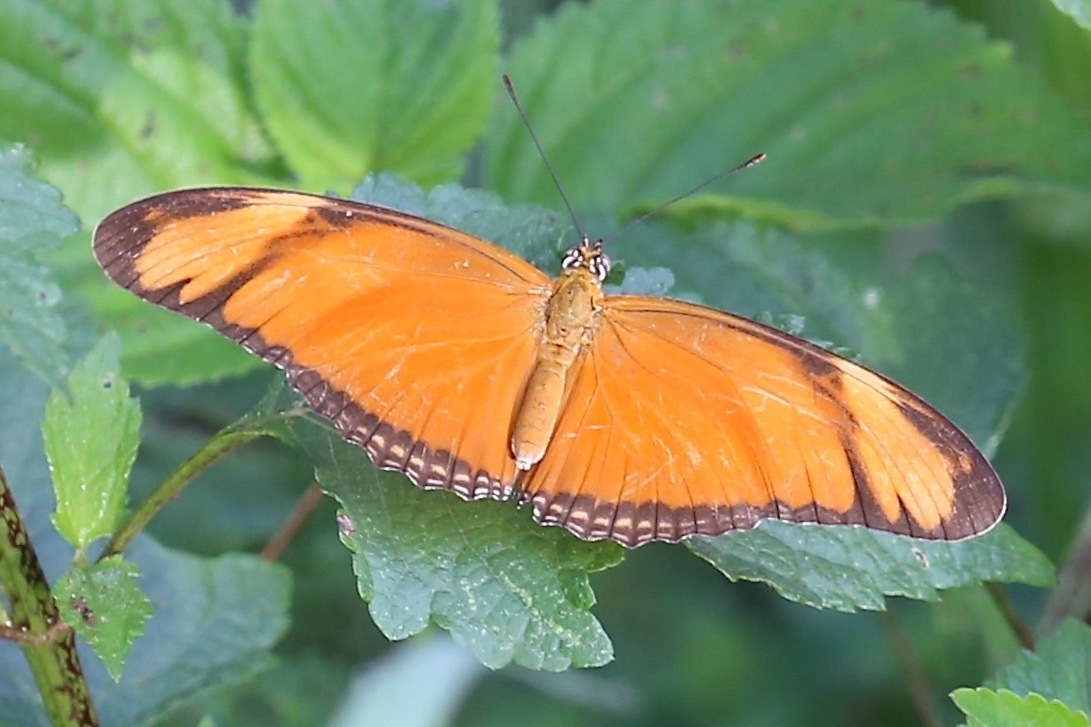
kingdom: Animalia
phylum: Arthropoda
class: Insecta
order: Lepidoptera
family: Nymphalidae
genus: Dryas
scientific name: Dryas iulia
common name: Flambeau
